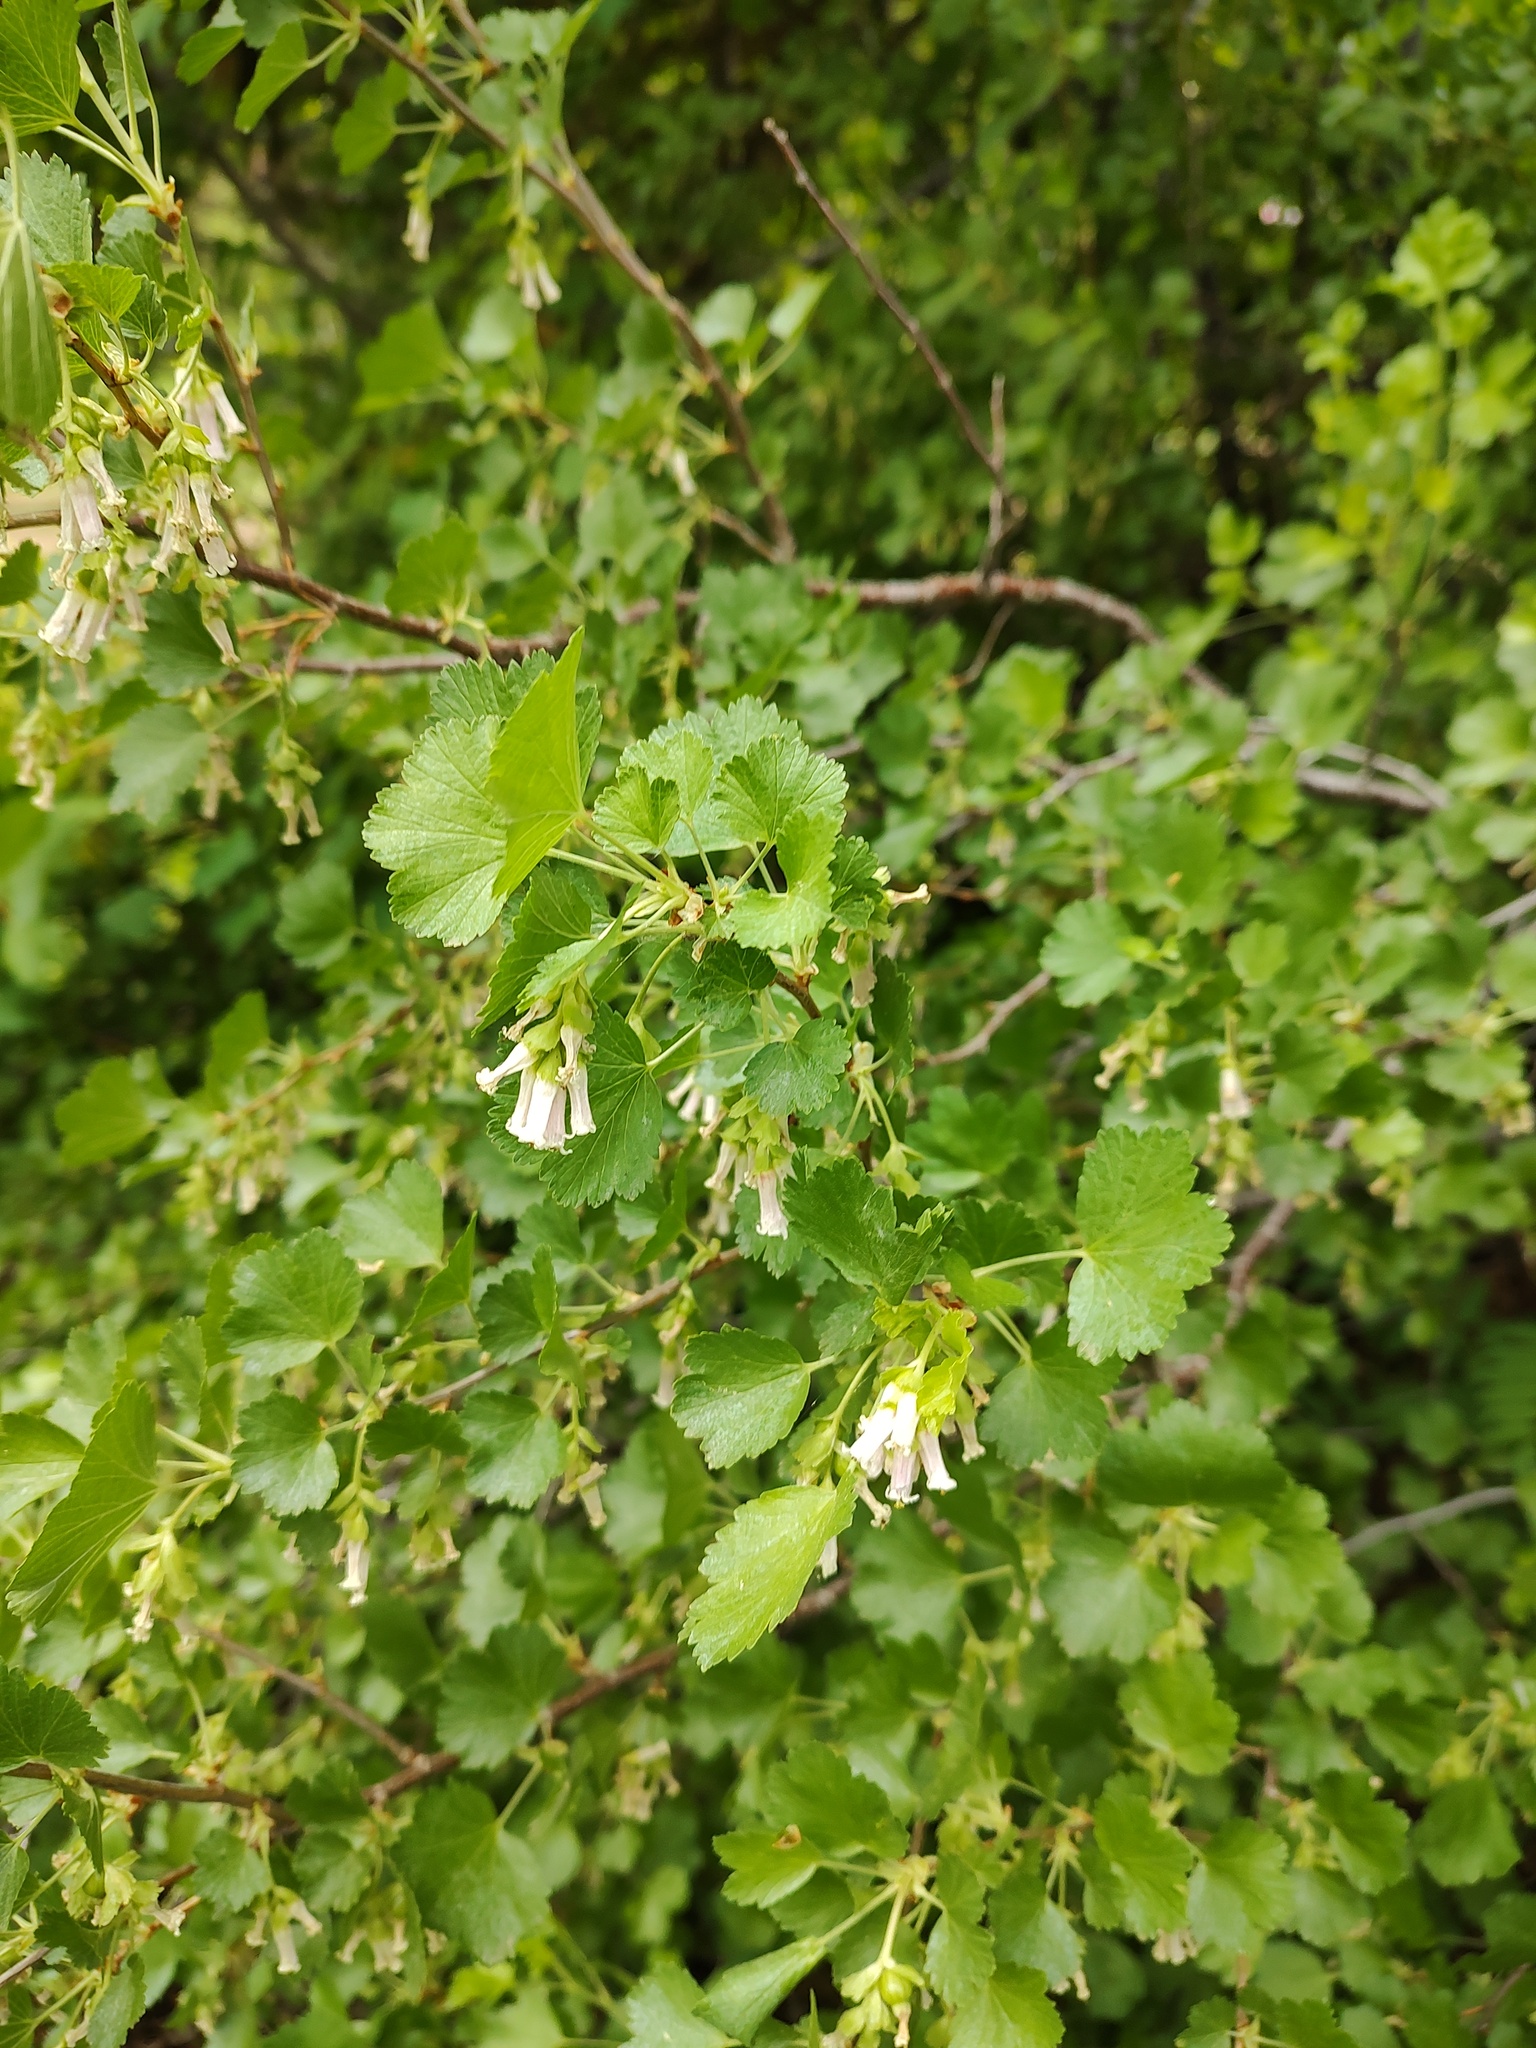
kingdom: Plantae
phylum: Tracheophyta
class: Magnoliopsida
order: Saxifragales
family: Grossulariaceae
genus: Ribes
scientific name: Ribes cereum
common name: Wax currant
